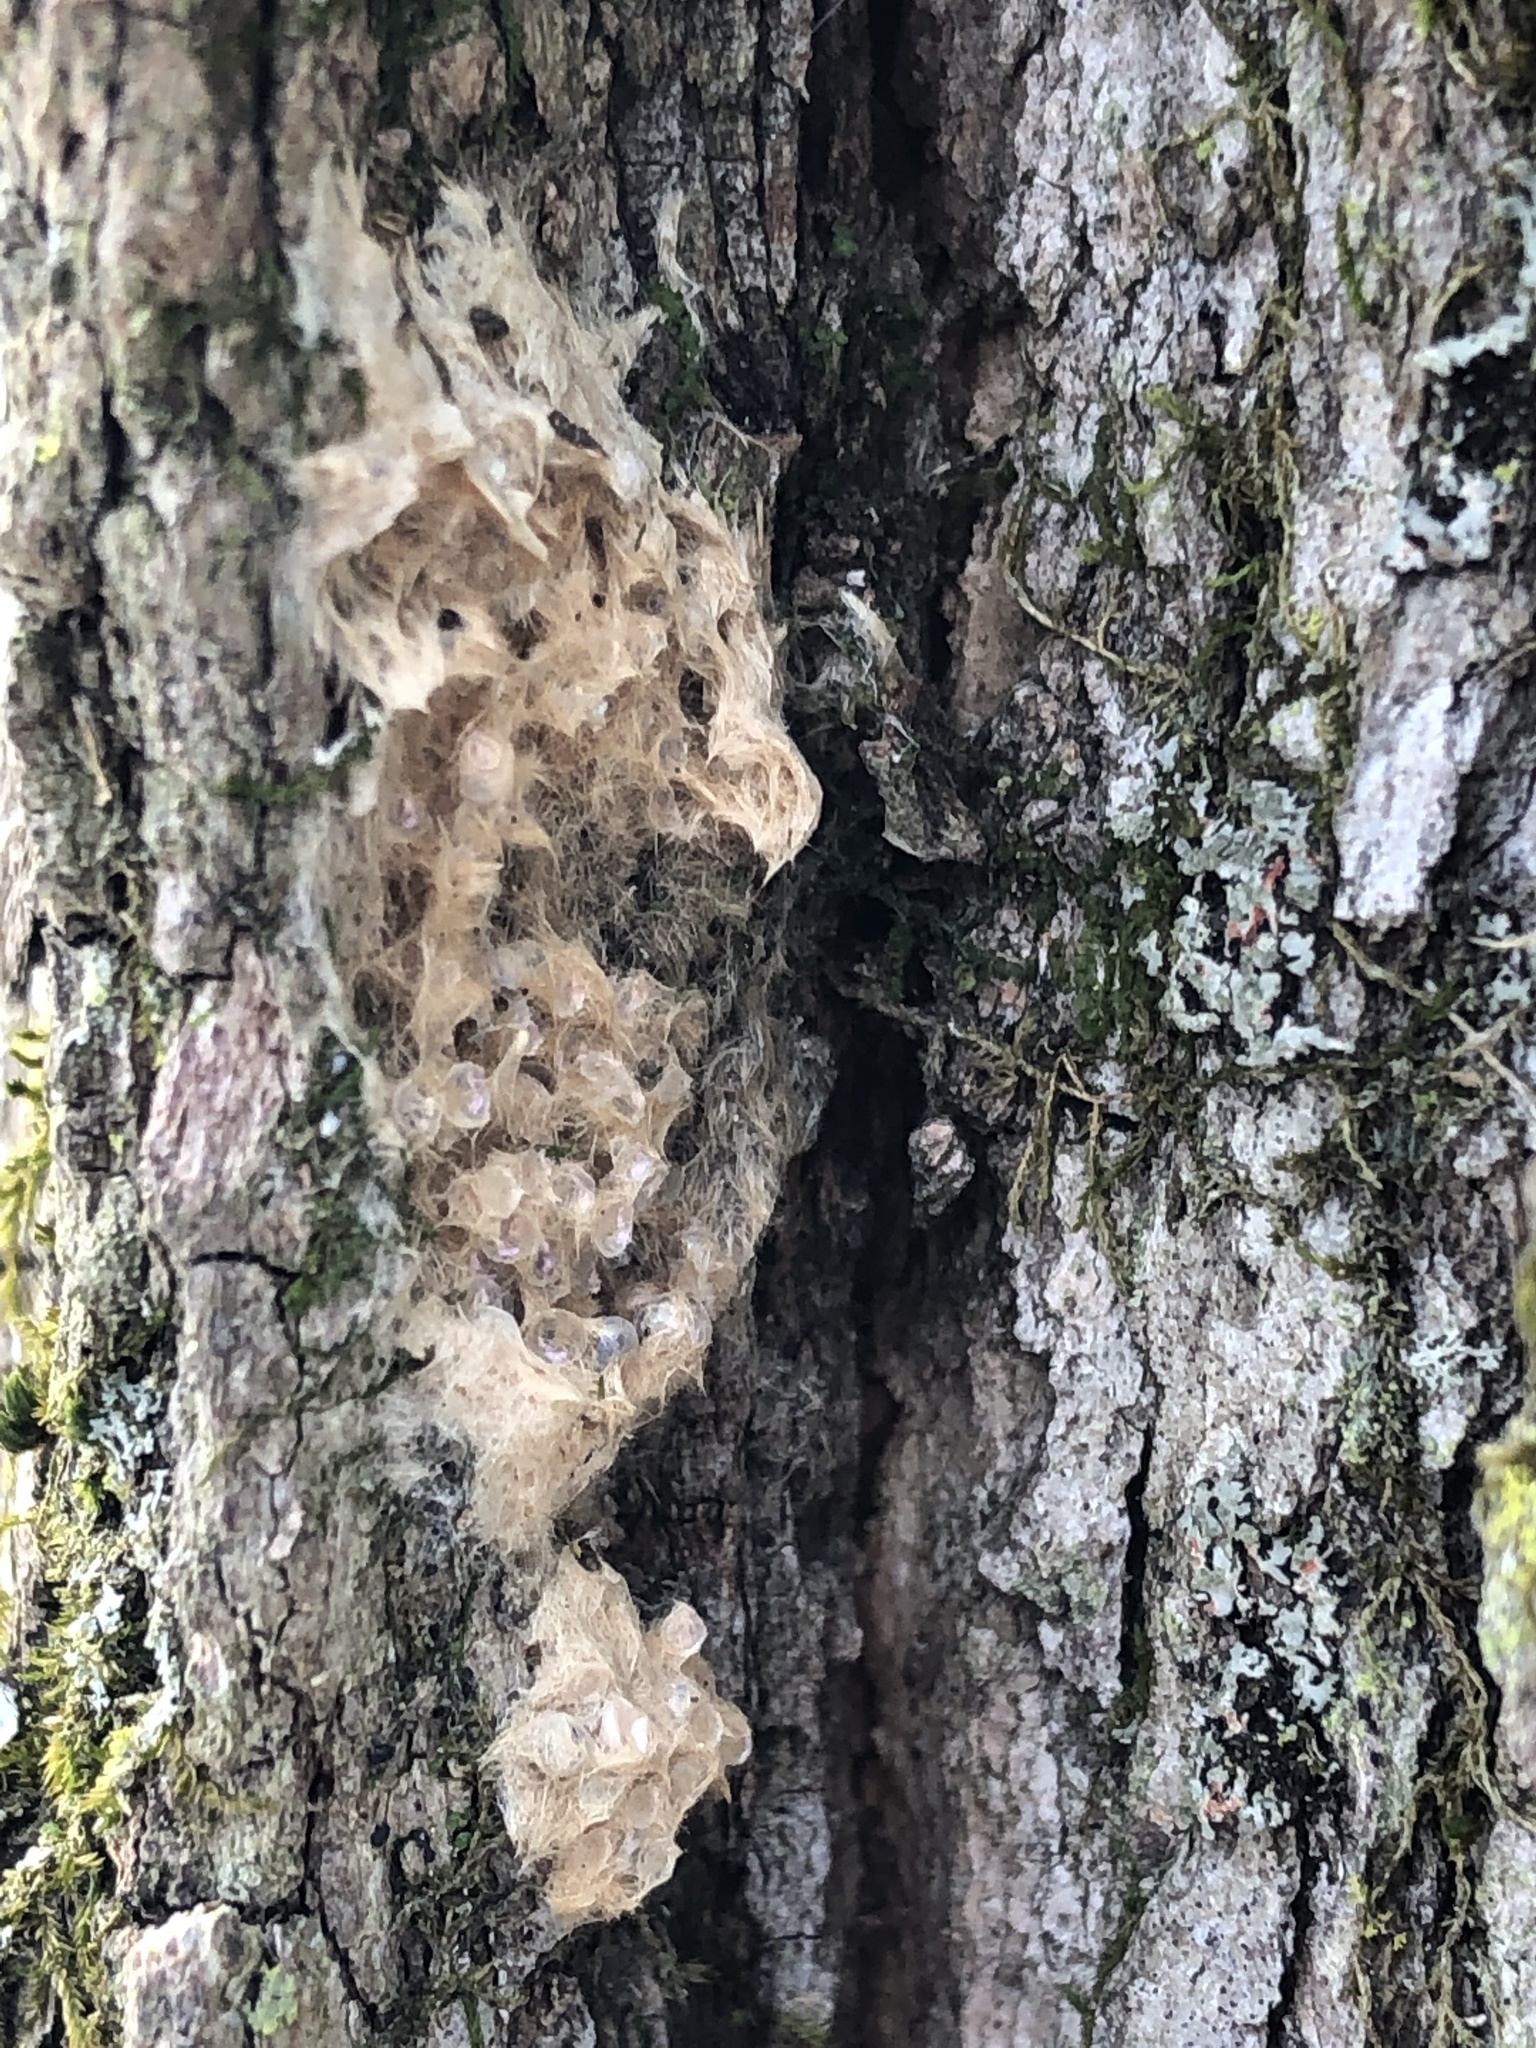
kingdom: Animalia
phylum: Arthropoda
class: Insecta
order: Lepidoptera
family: Erebidae
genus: Lymantria
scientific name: Lymantria dispar
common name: Gypsy moth
